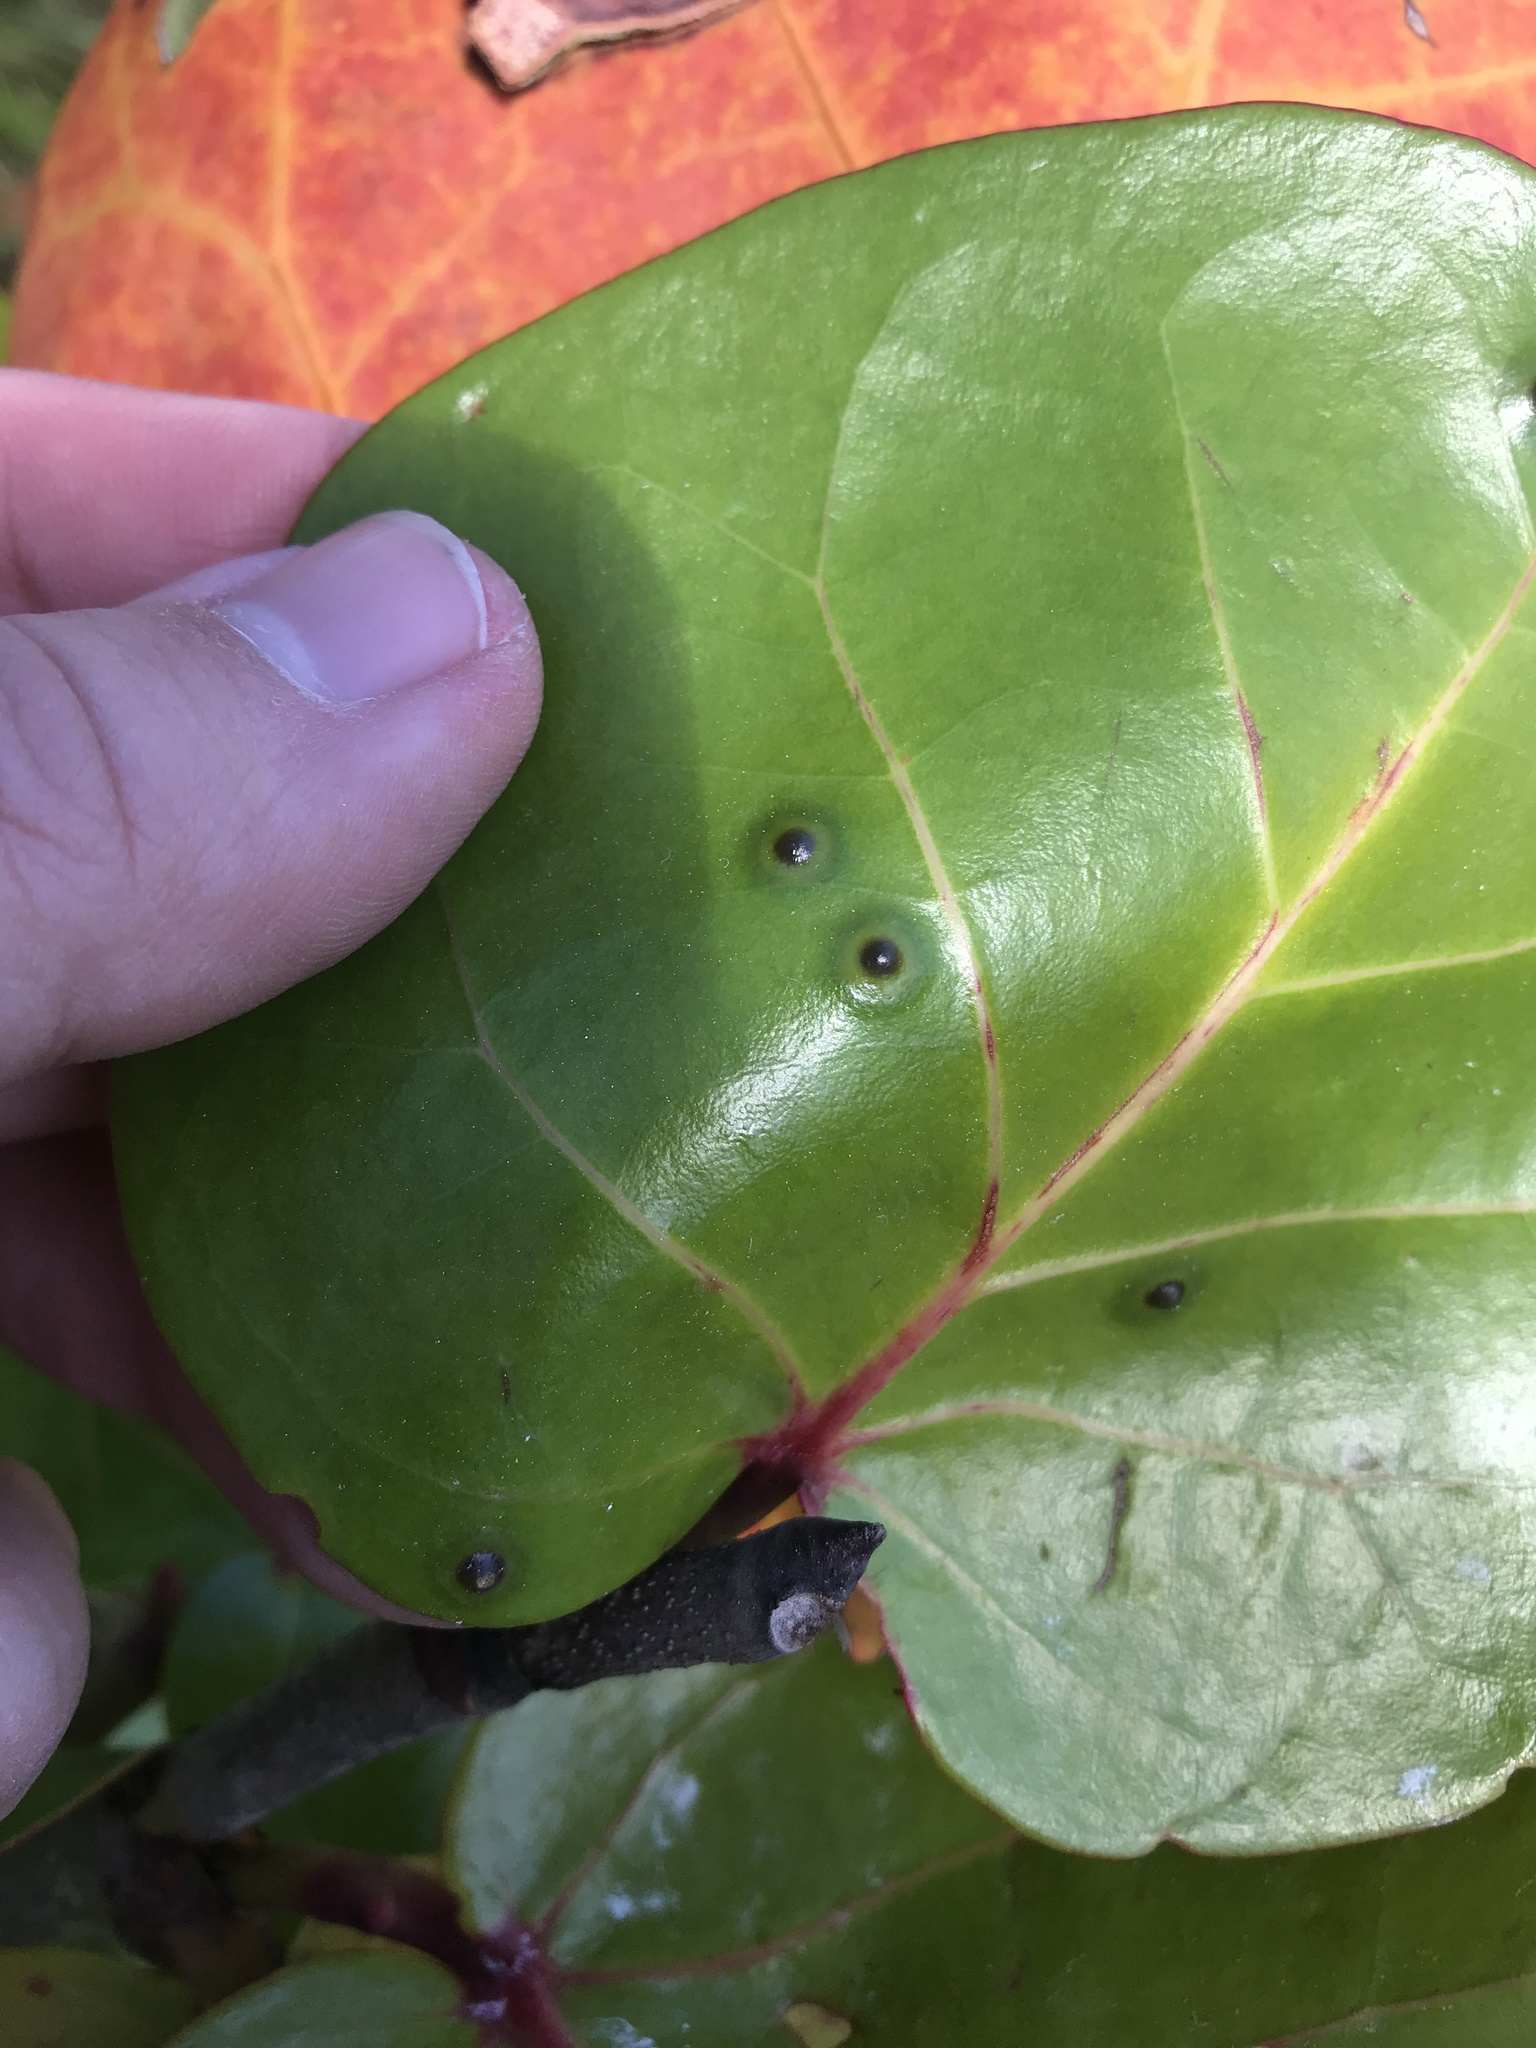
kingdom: Animalia
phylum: Arthropoda
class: Insecta
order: Diptera
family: Cecidomyiidae
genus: Ctenodactylomyia
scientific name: Ctenodactylomyia watsoni
